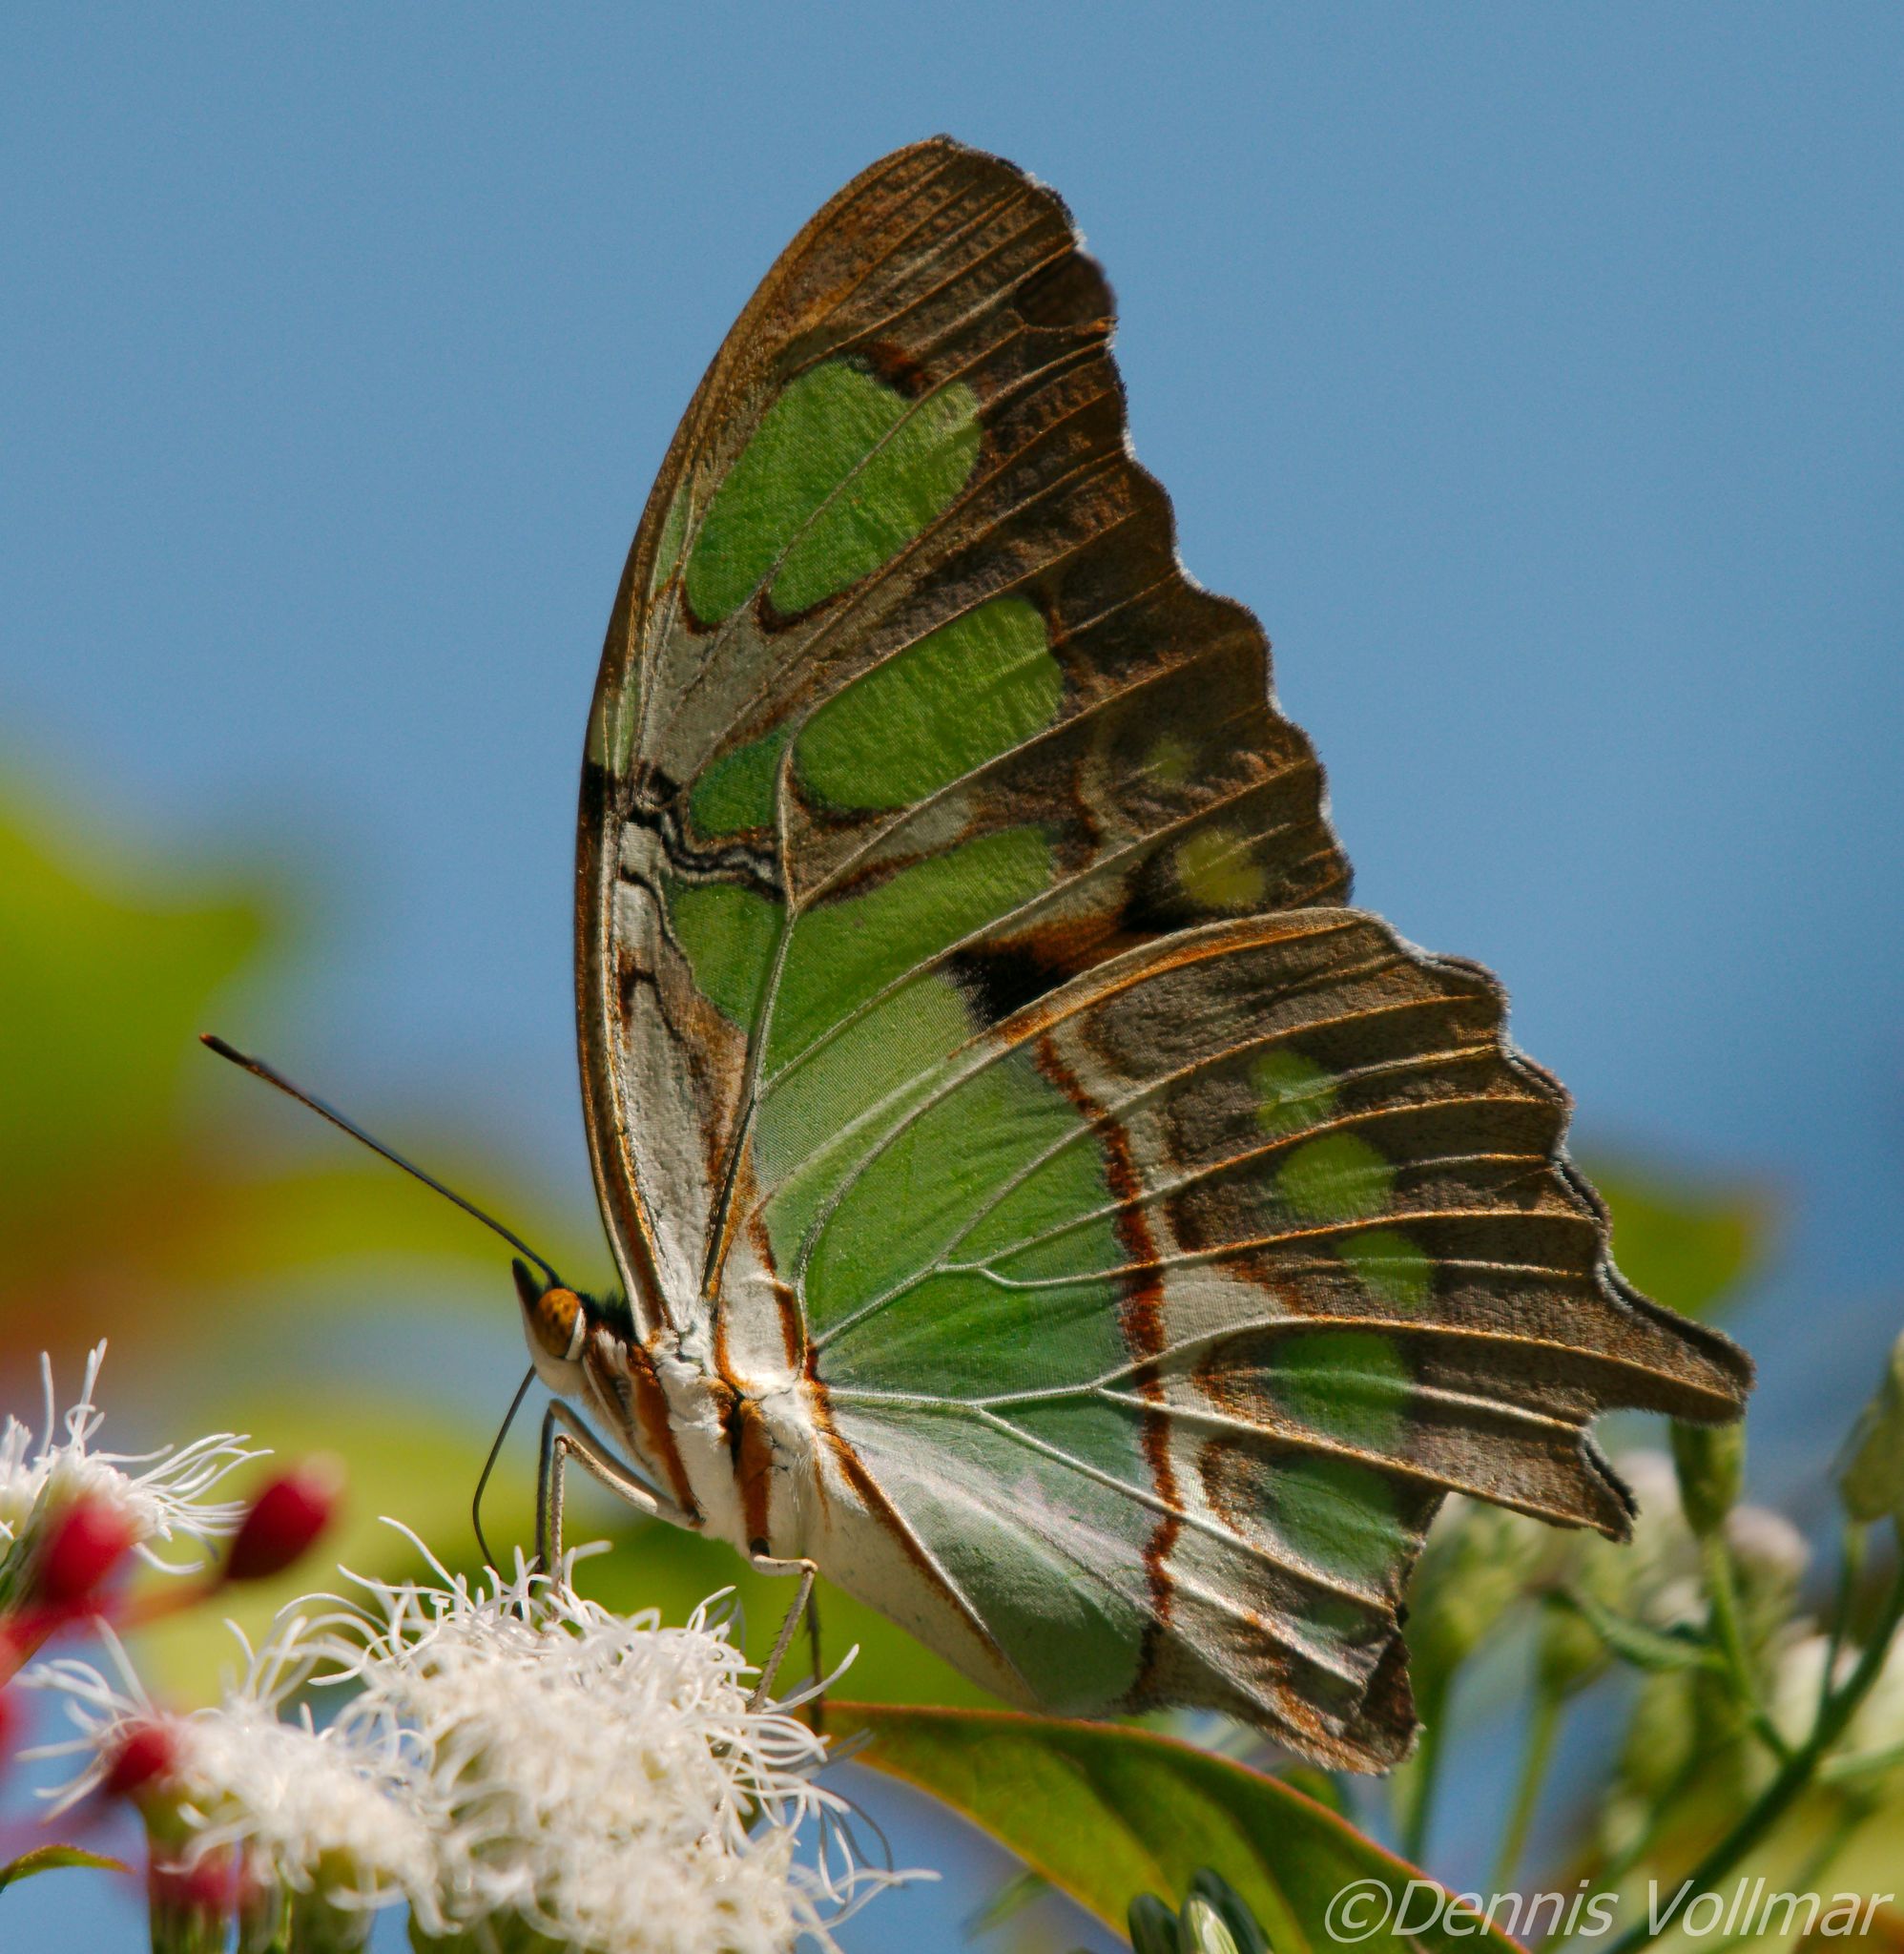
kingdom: Animalia
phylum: Arthropoda
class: Insecta
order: Lepidoptera
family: Nymphalidae
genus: Siproeta
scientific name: Siproeta stelenes
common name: Malachite
